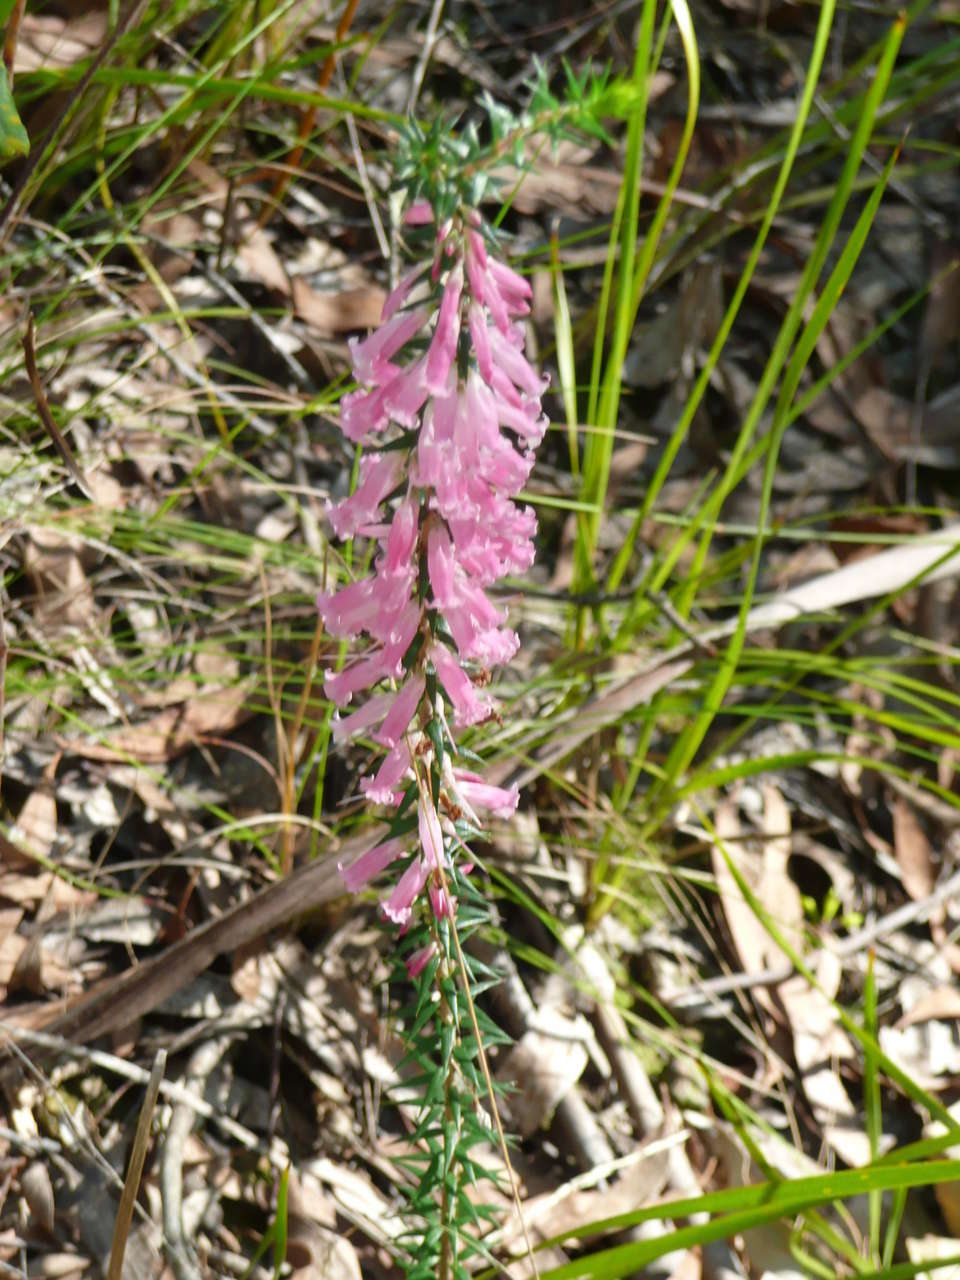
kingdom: Plantae
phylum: Tracheophyta
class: Magnoliopsida
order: Ericales
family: Ericaceae
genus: Epacris
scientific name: Epacris impressa
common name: Common-heath
